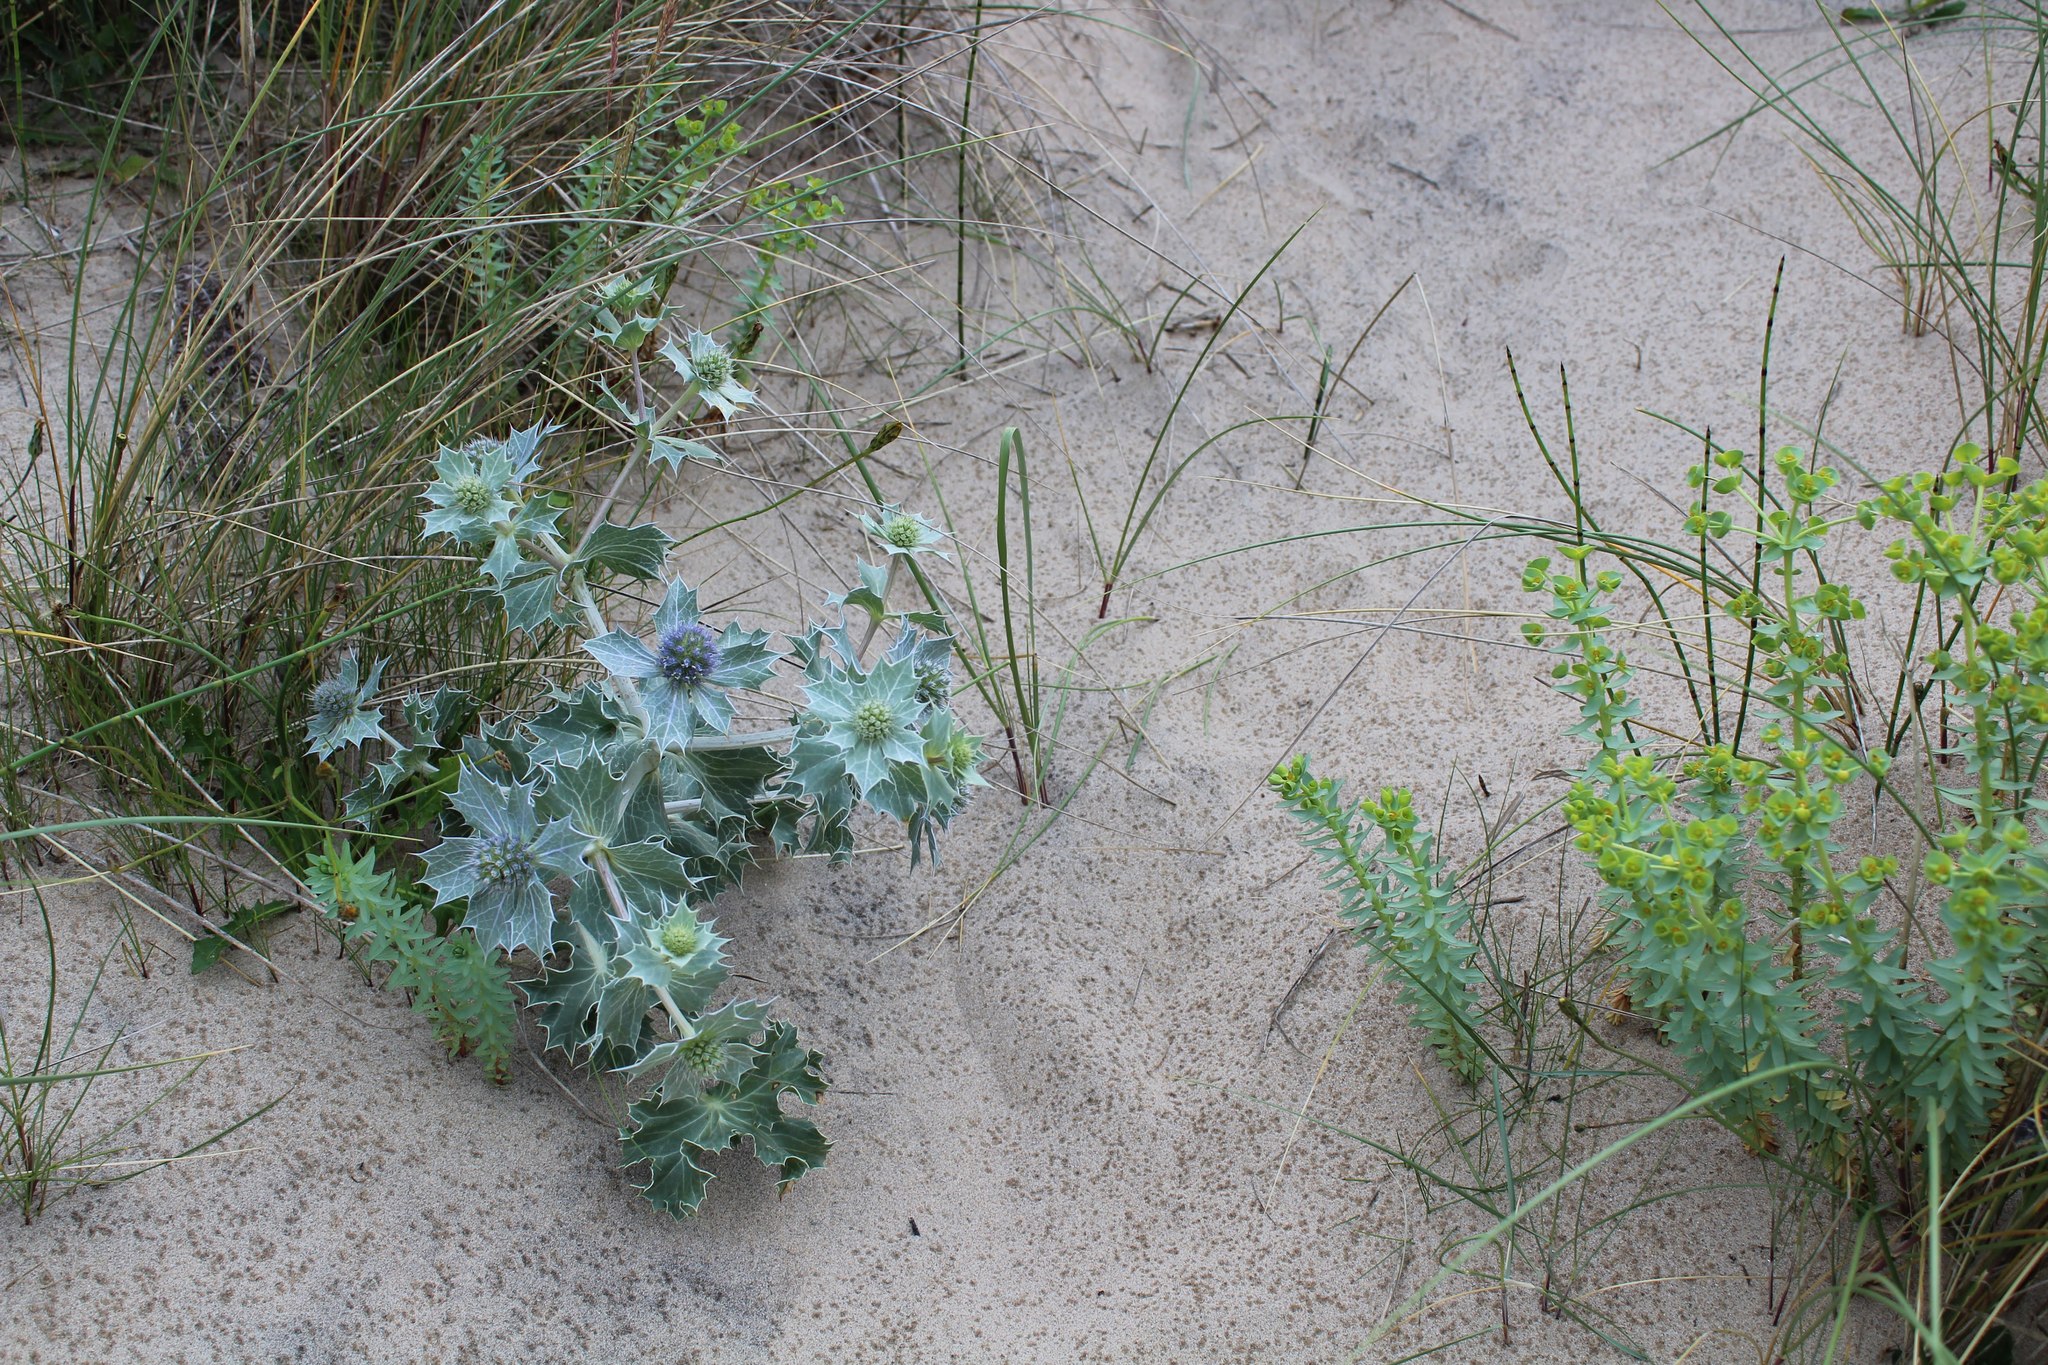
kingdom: Plantae
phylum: Tracheophyta
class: Magnoliopsida
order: Apiales
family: Apiaceae
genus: Eryngium
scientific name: Eryngium maritimum
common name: Sea-holly
